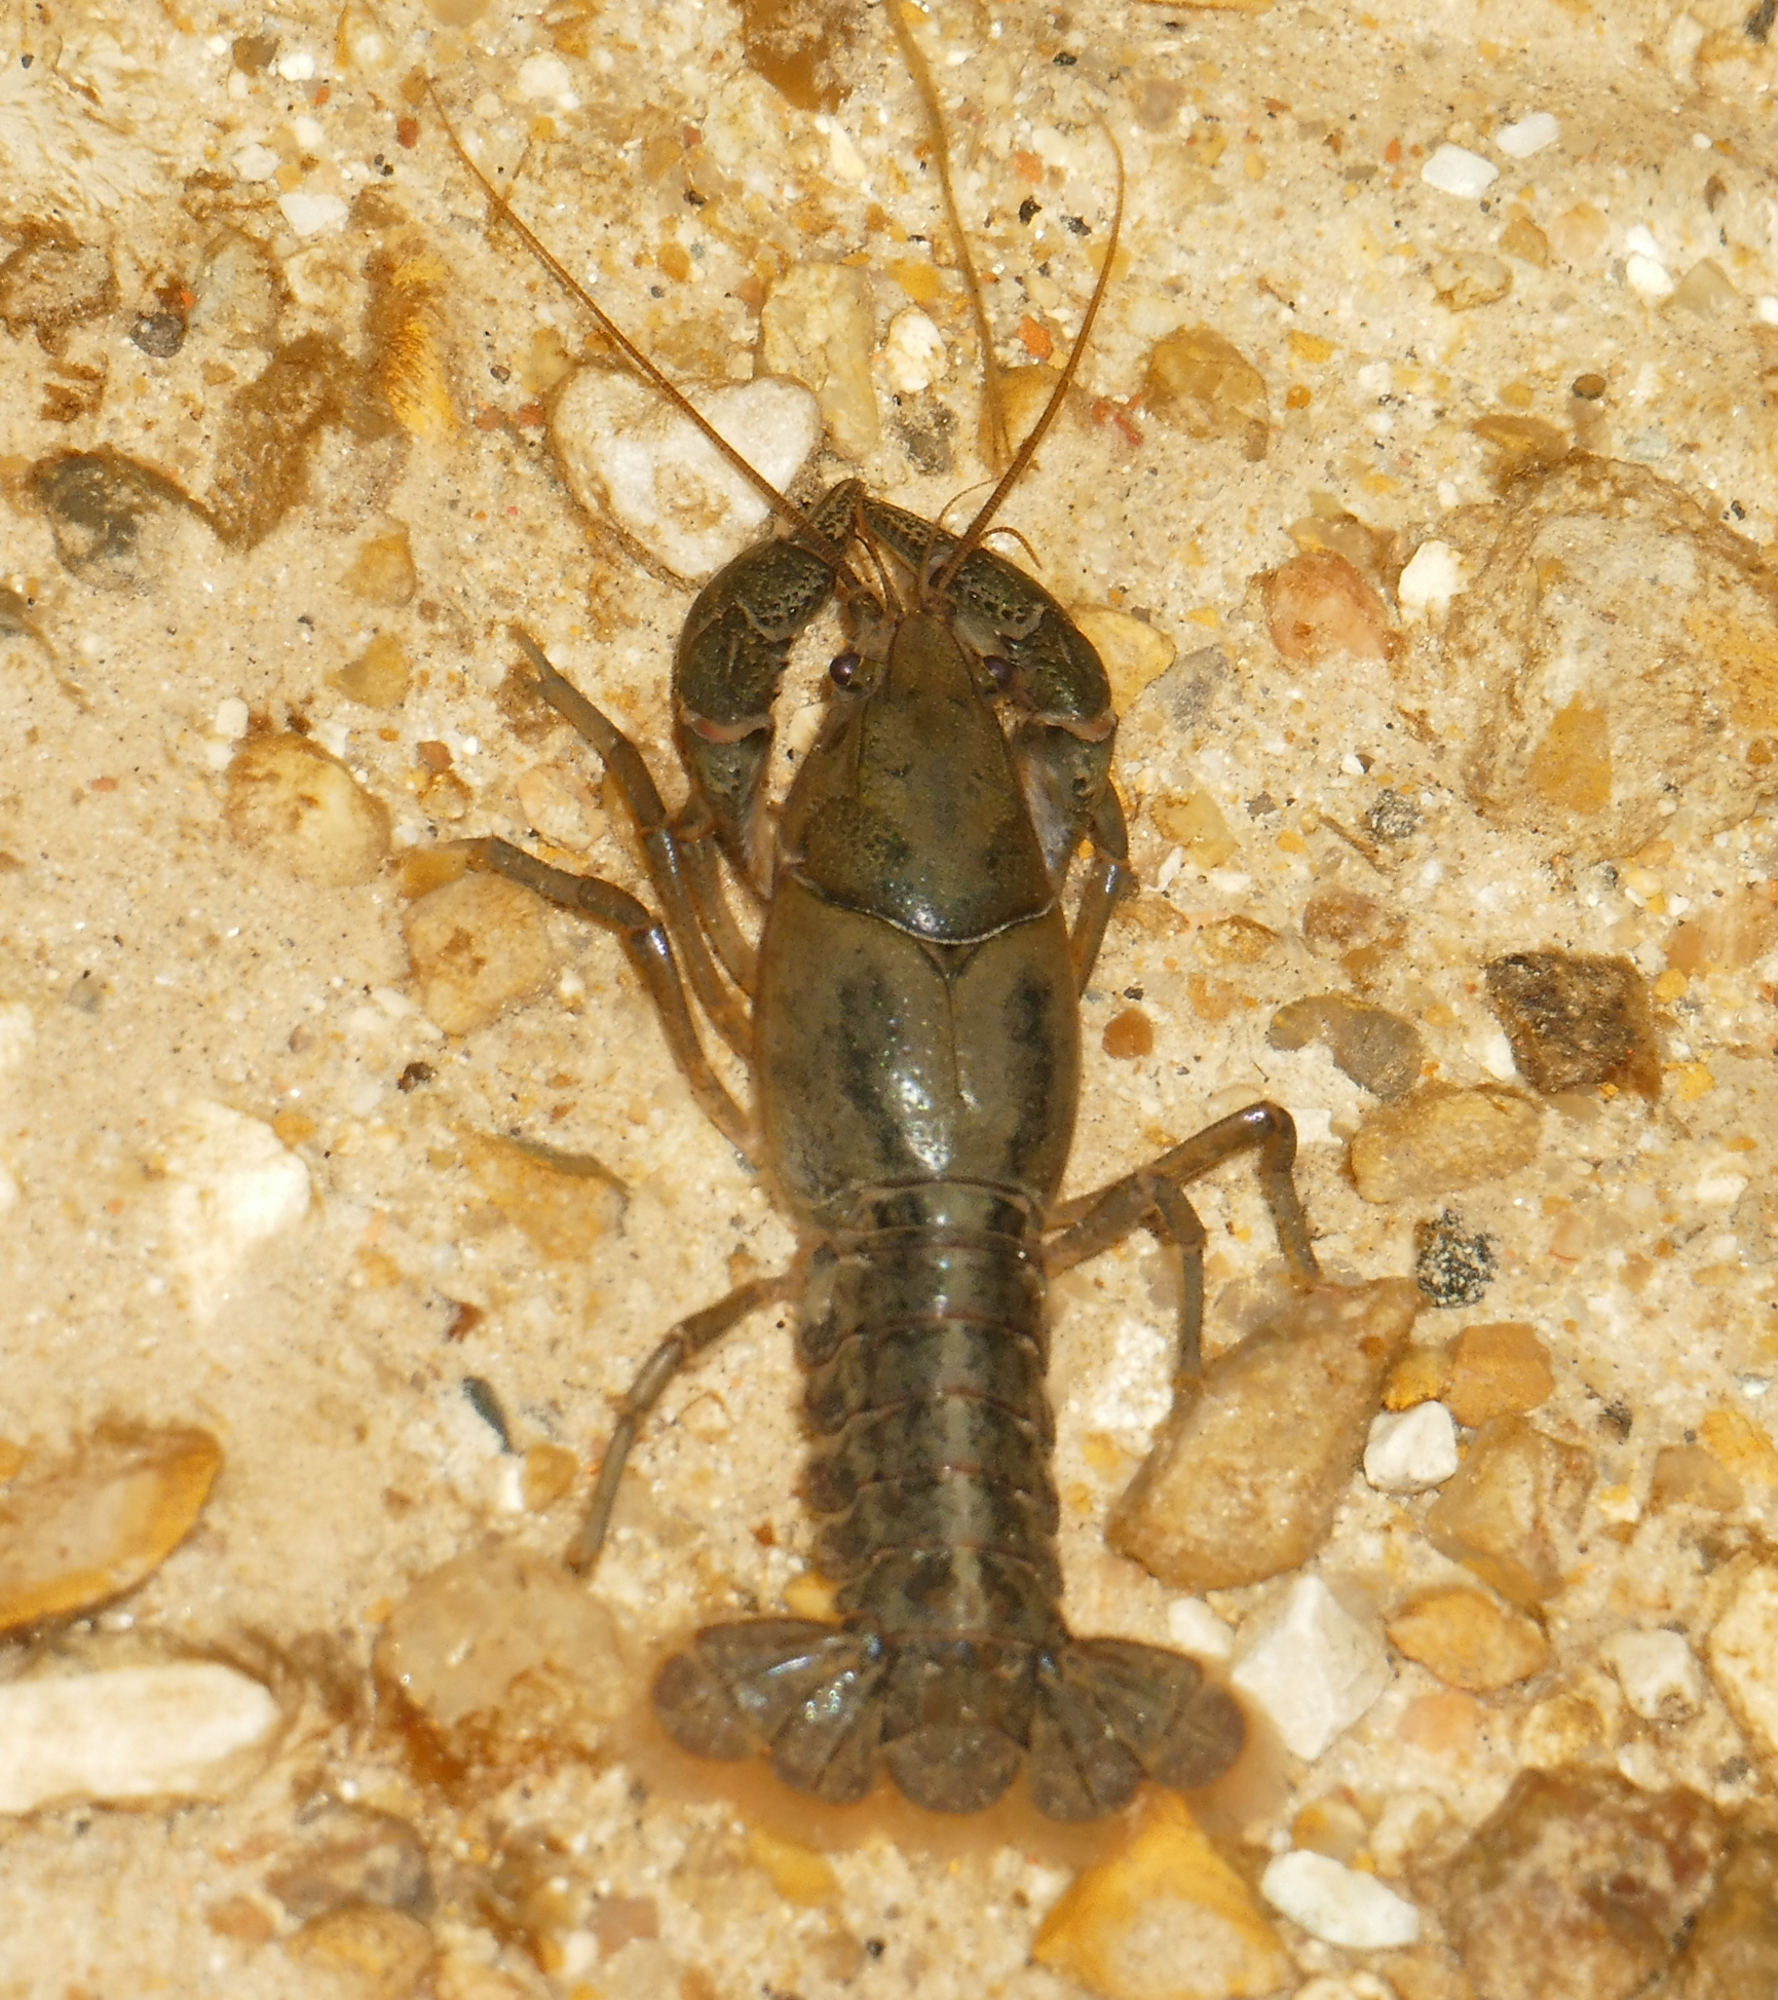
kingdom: Animalia
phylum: Arthropoda
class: Malacostraca
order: Decapoda
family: Cambaridae
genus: Creaserinus
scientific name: Creaserinus fodiens
